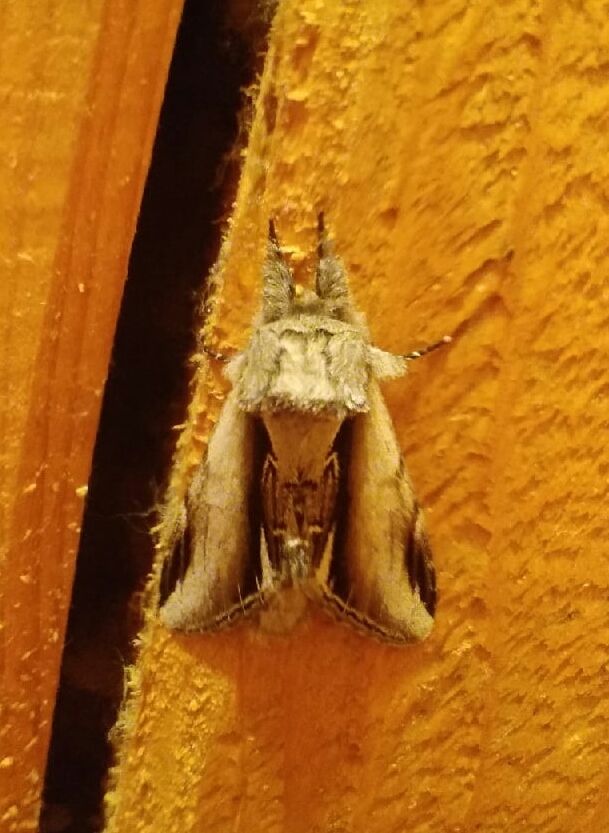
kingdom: Animalia
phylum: Arthropoda
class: Insecta
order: Lepidoptera
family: Notodontidae
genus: Pheosia
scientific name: Pheosia gnoma
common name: Lesser swallow prominent
